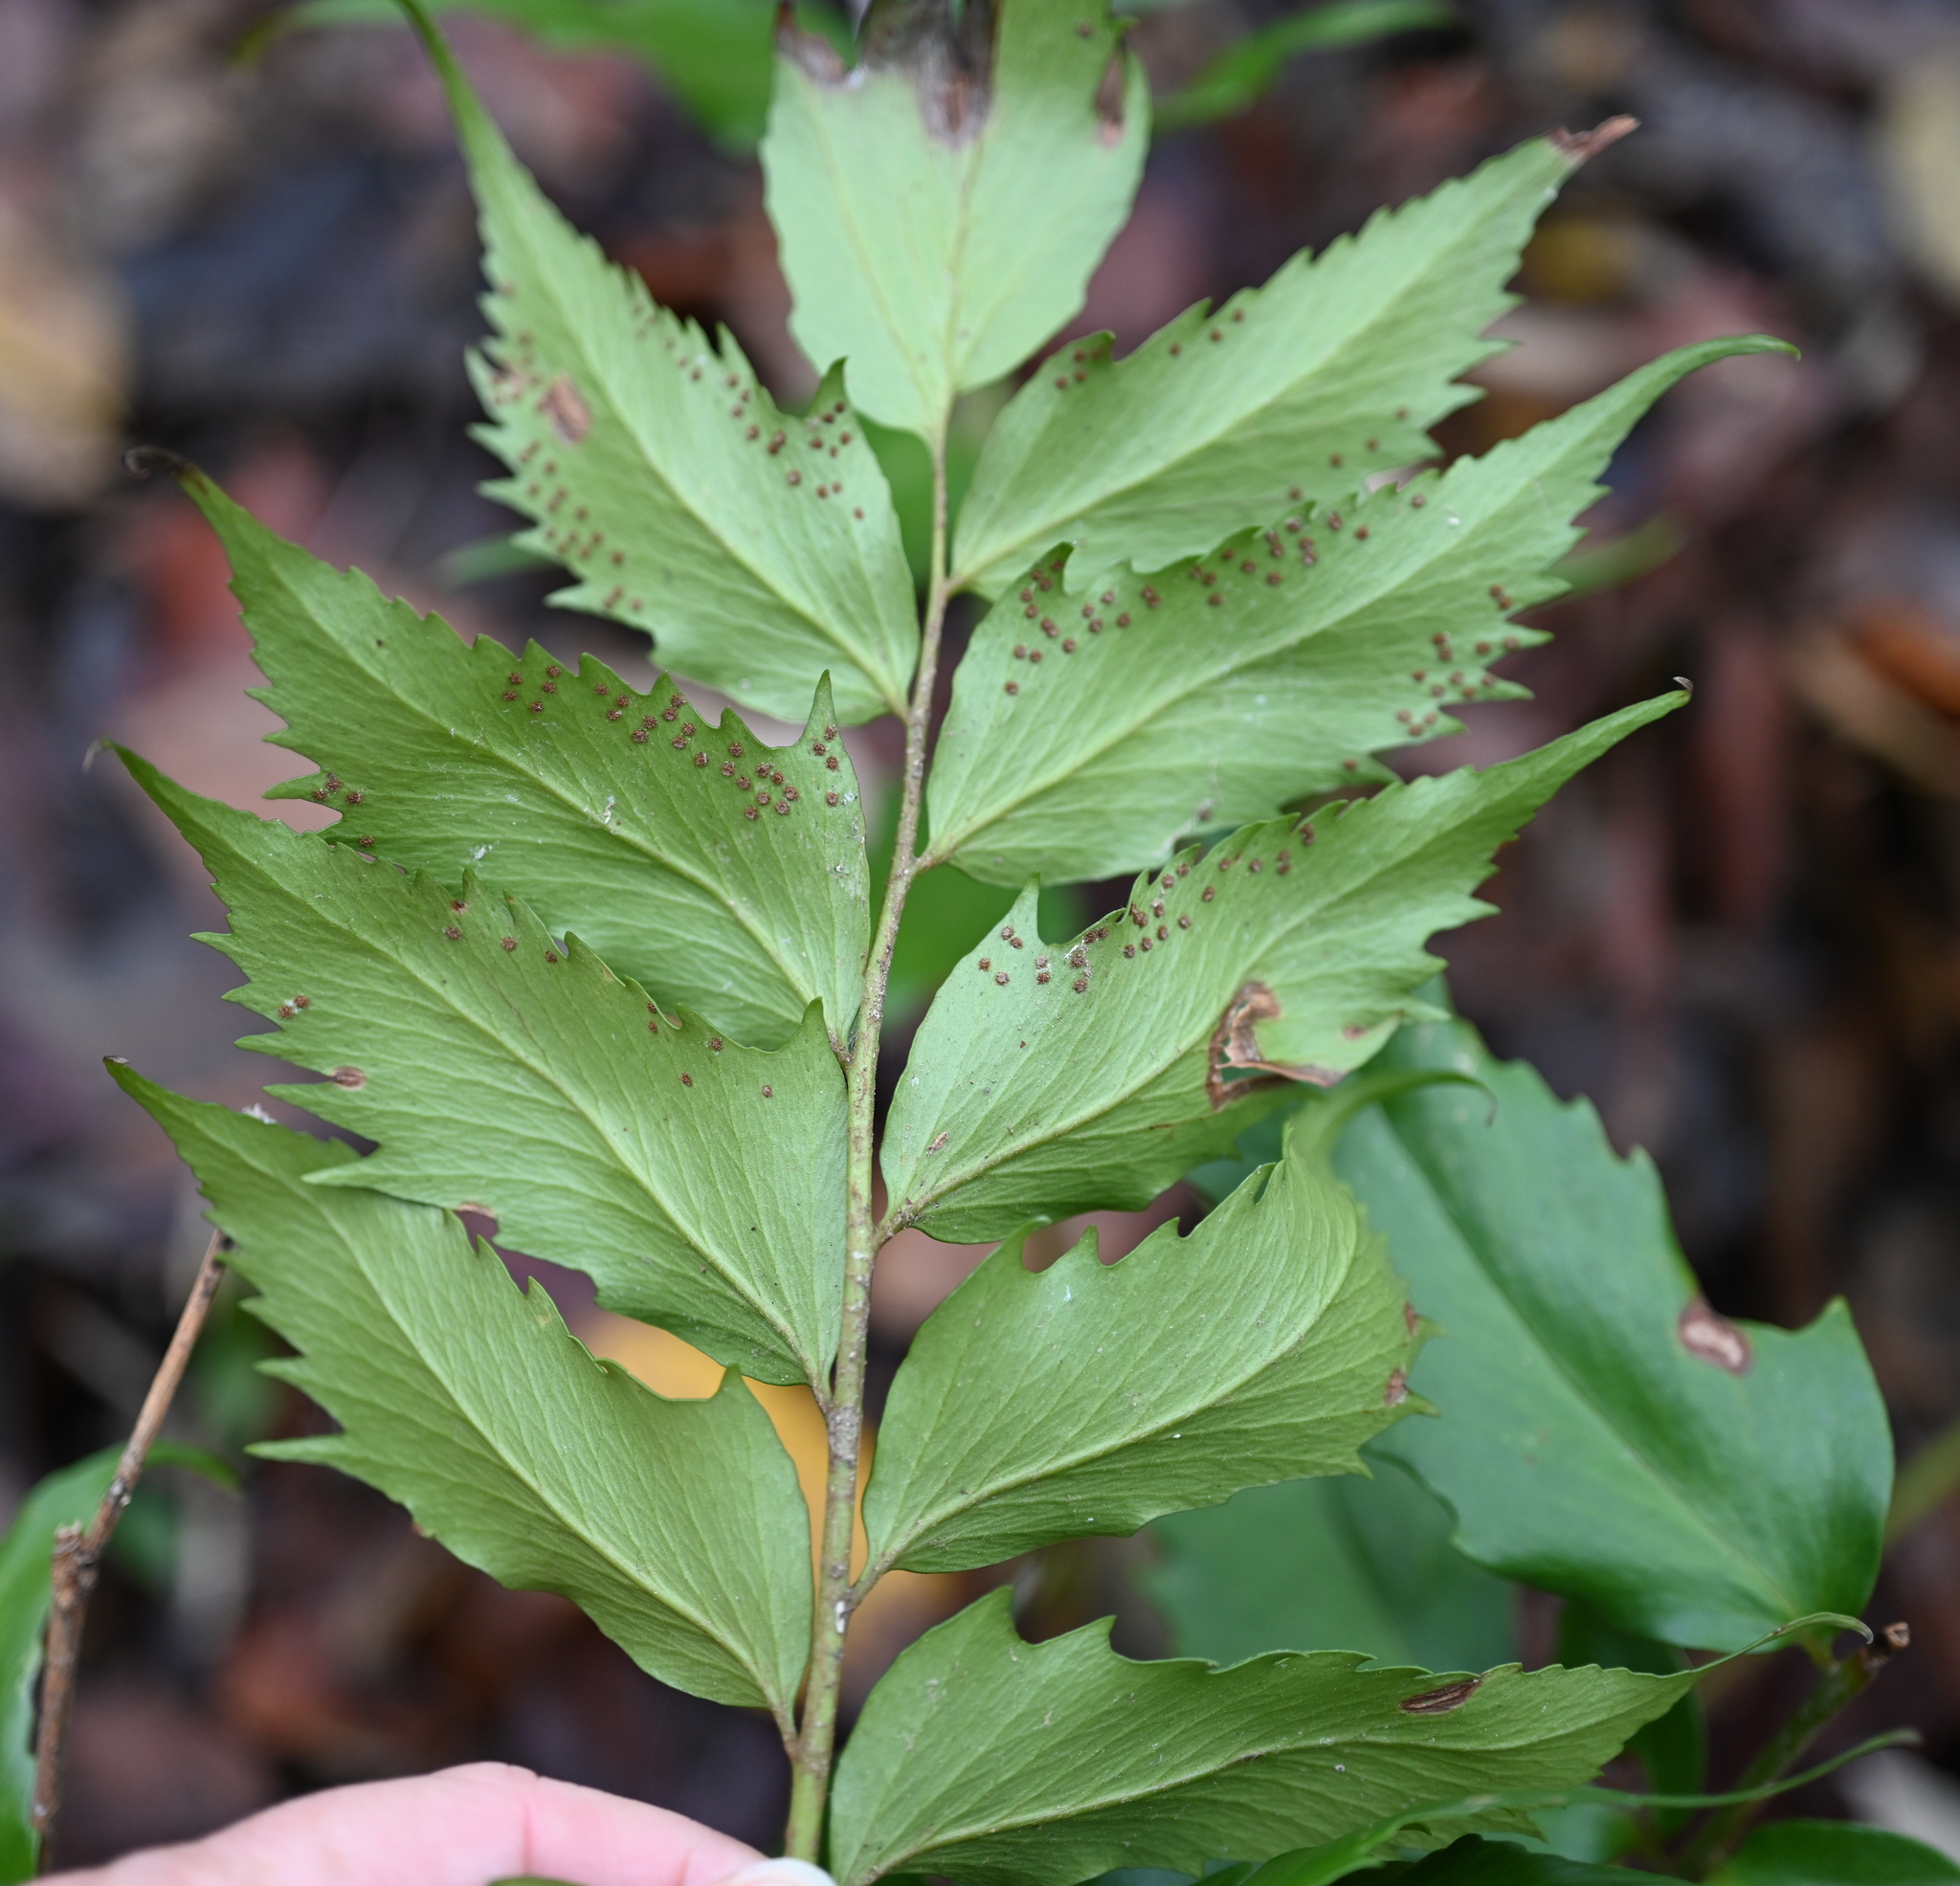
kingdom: Plantae
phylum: Tracheophyta
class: Polypodiopsida
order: Polypodiales
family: Dryopteridaceae
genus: Cyrtomium
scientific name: Cyrtomium falcatum
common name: House holly-fern
